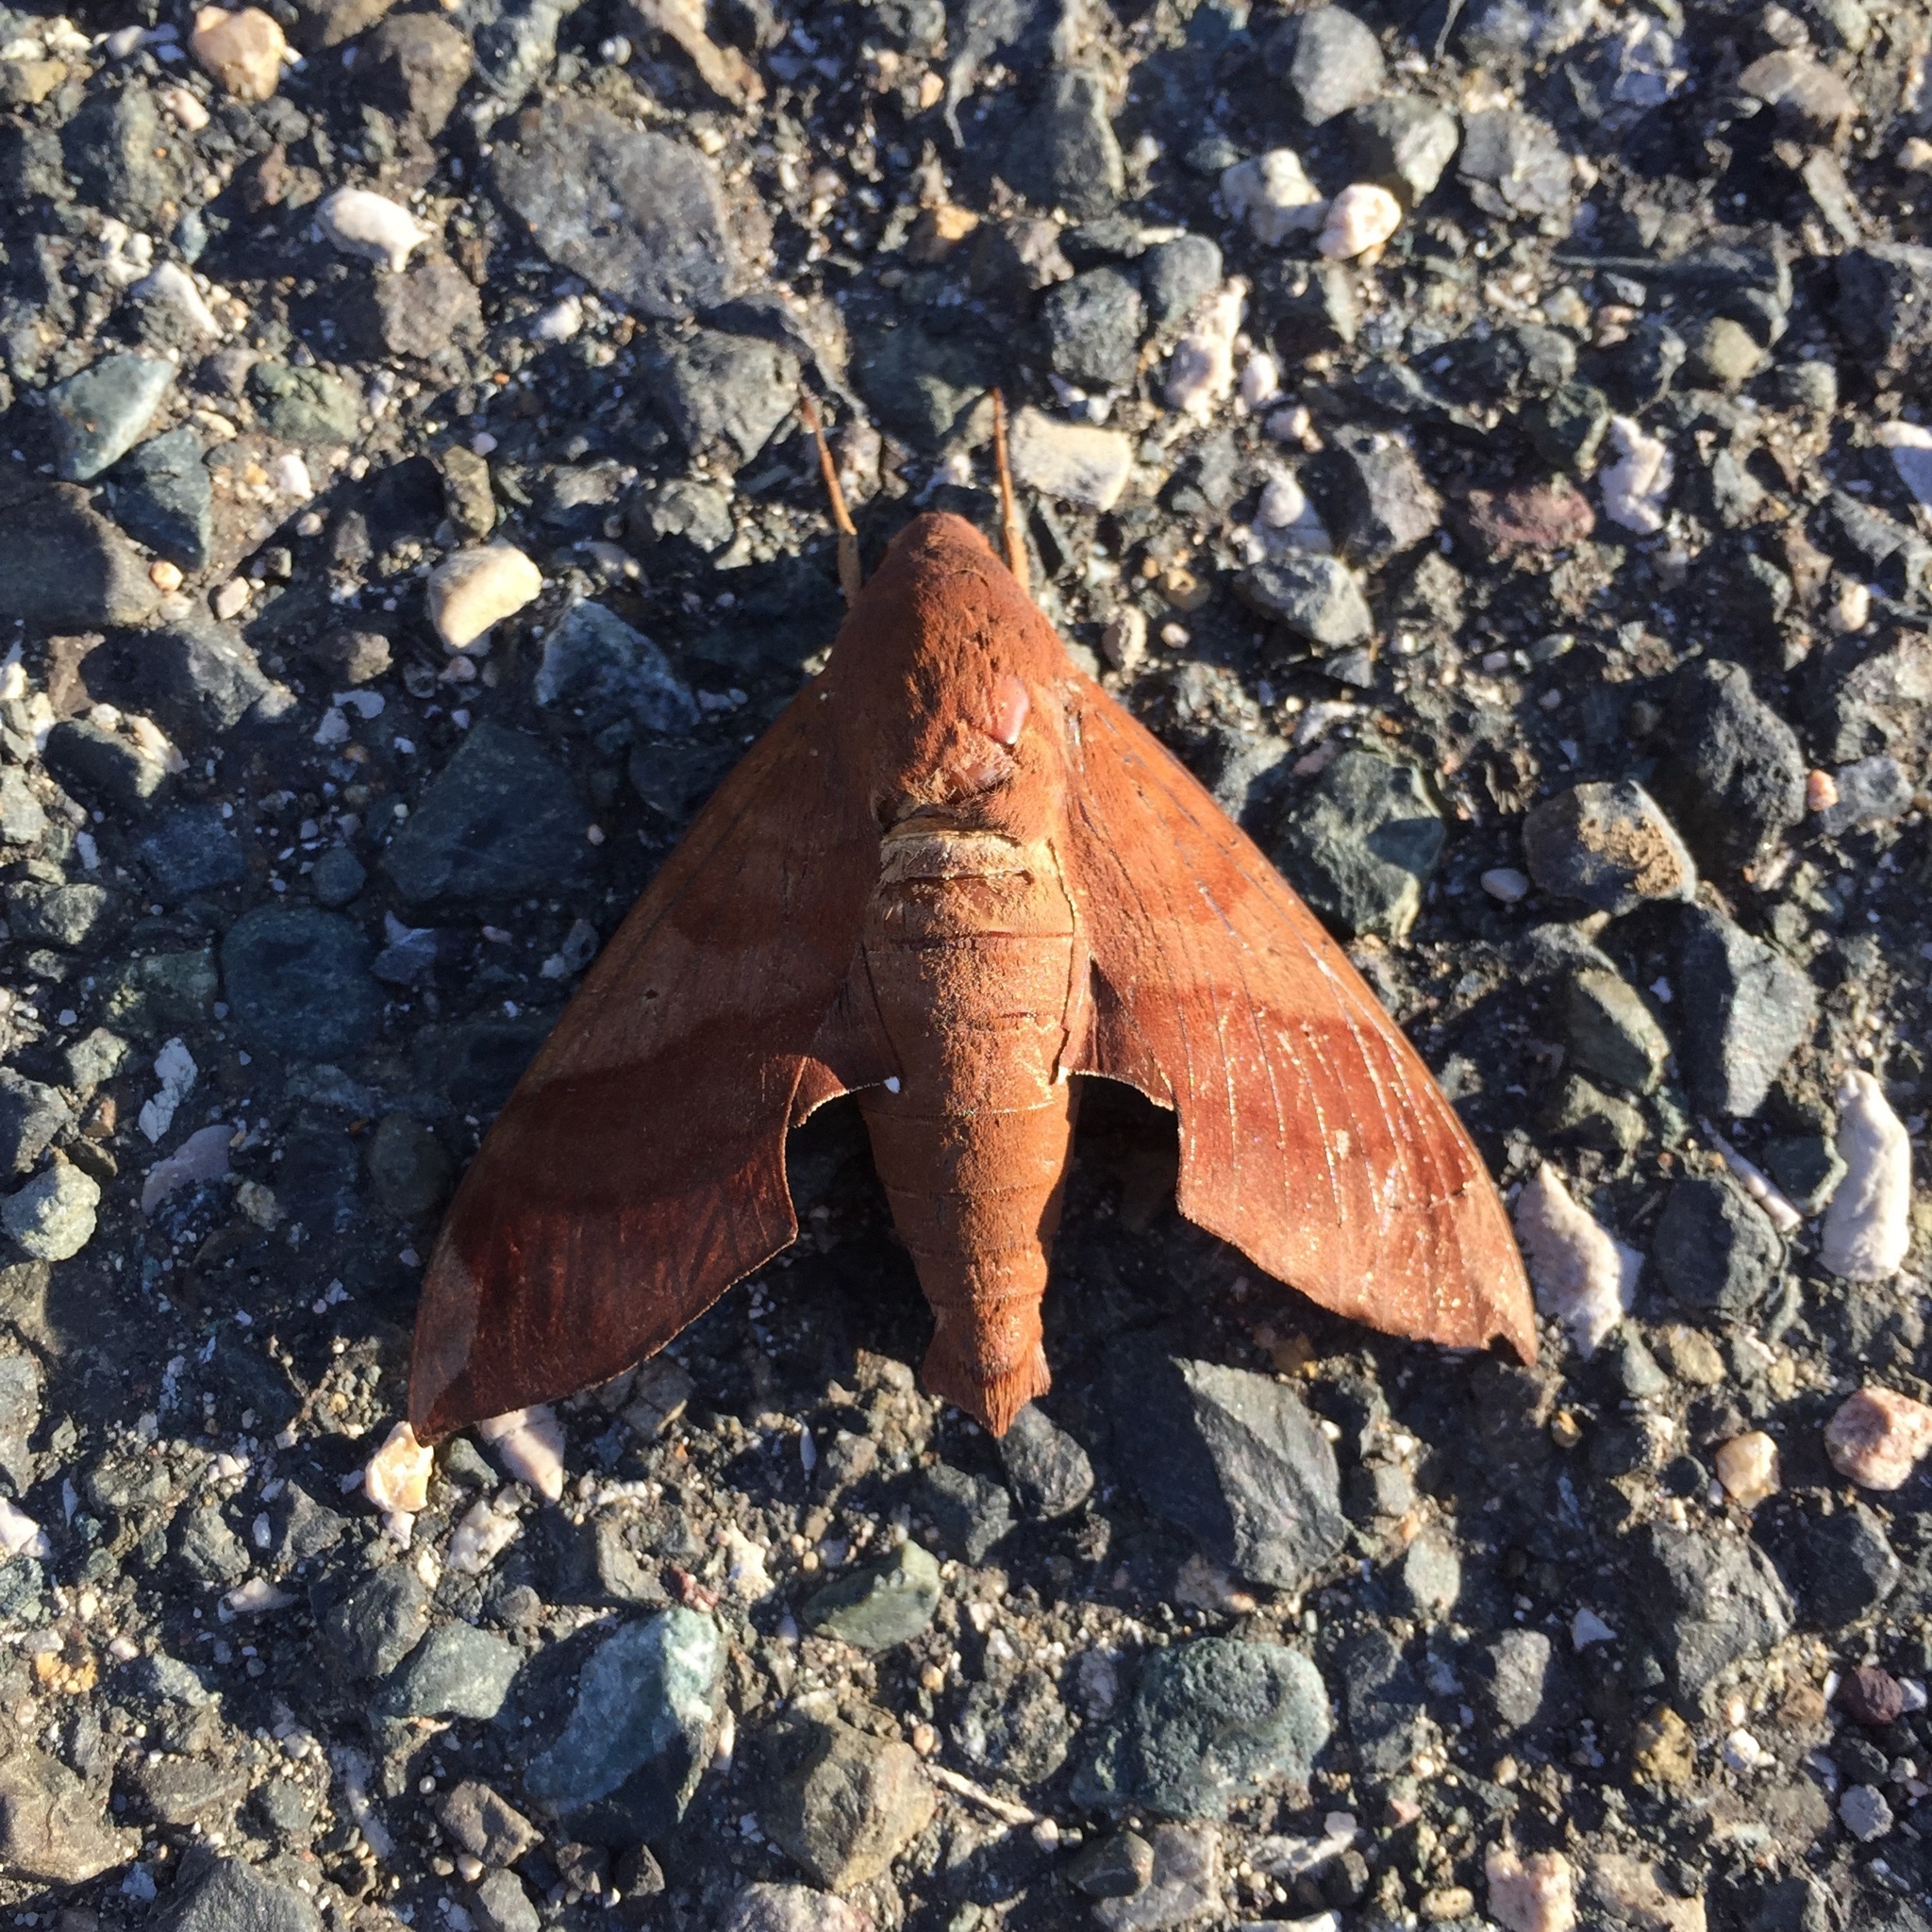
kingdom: Animalia
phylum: Arthropoda
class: Insecta
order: Lepidoptera
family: Sphingidae
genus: Pachylia
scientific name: Pachylia syces
